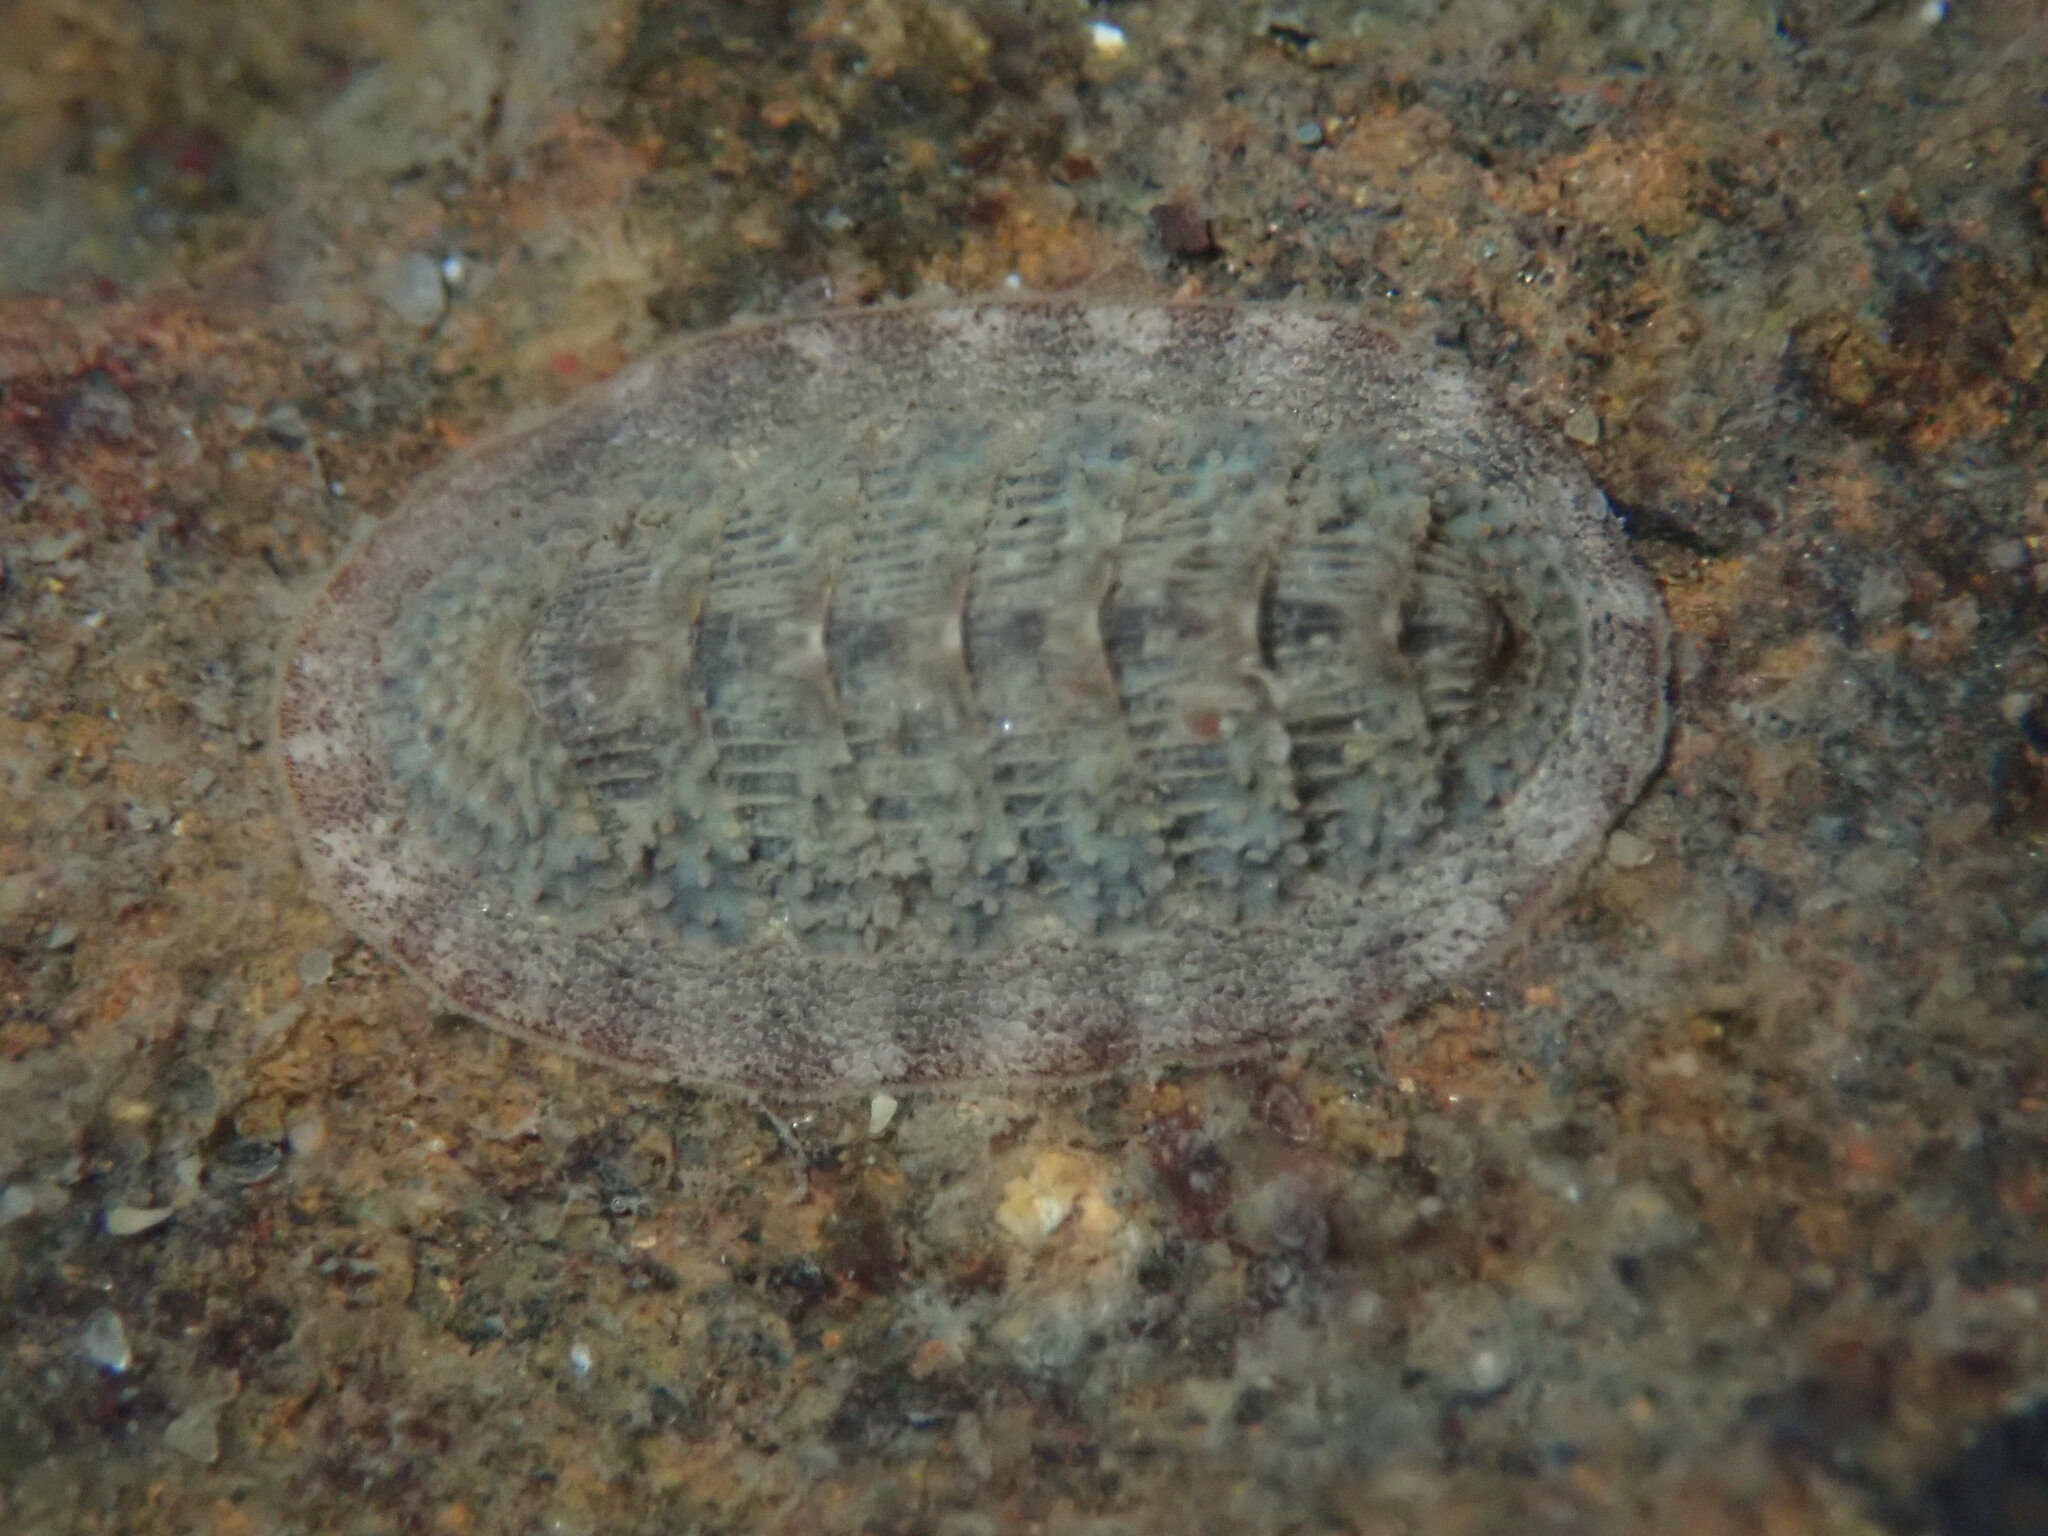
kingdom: Animalia
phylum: Mollusca
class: Polyplacophora
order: Chitonida
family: Ischnochitonidae
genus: Lepidozona
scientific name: Lepidozona cooperi
